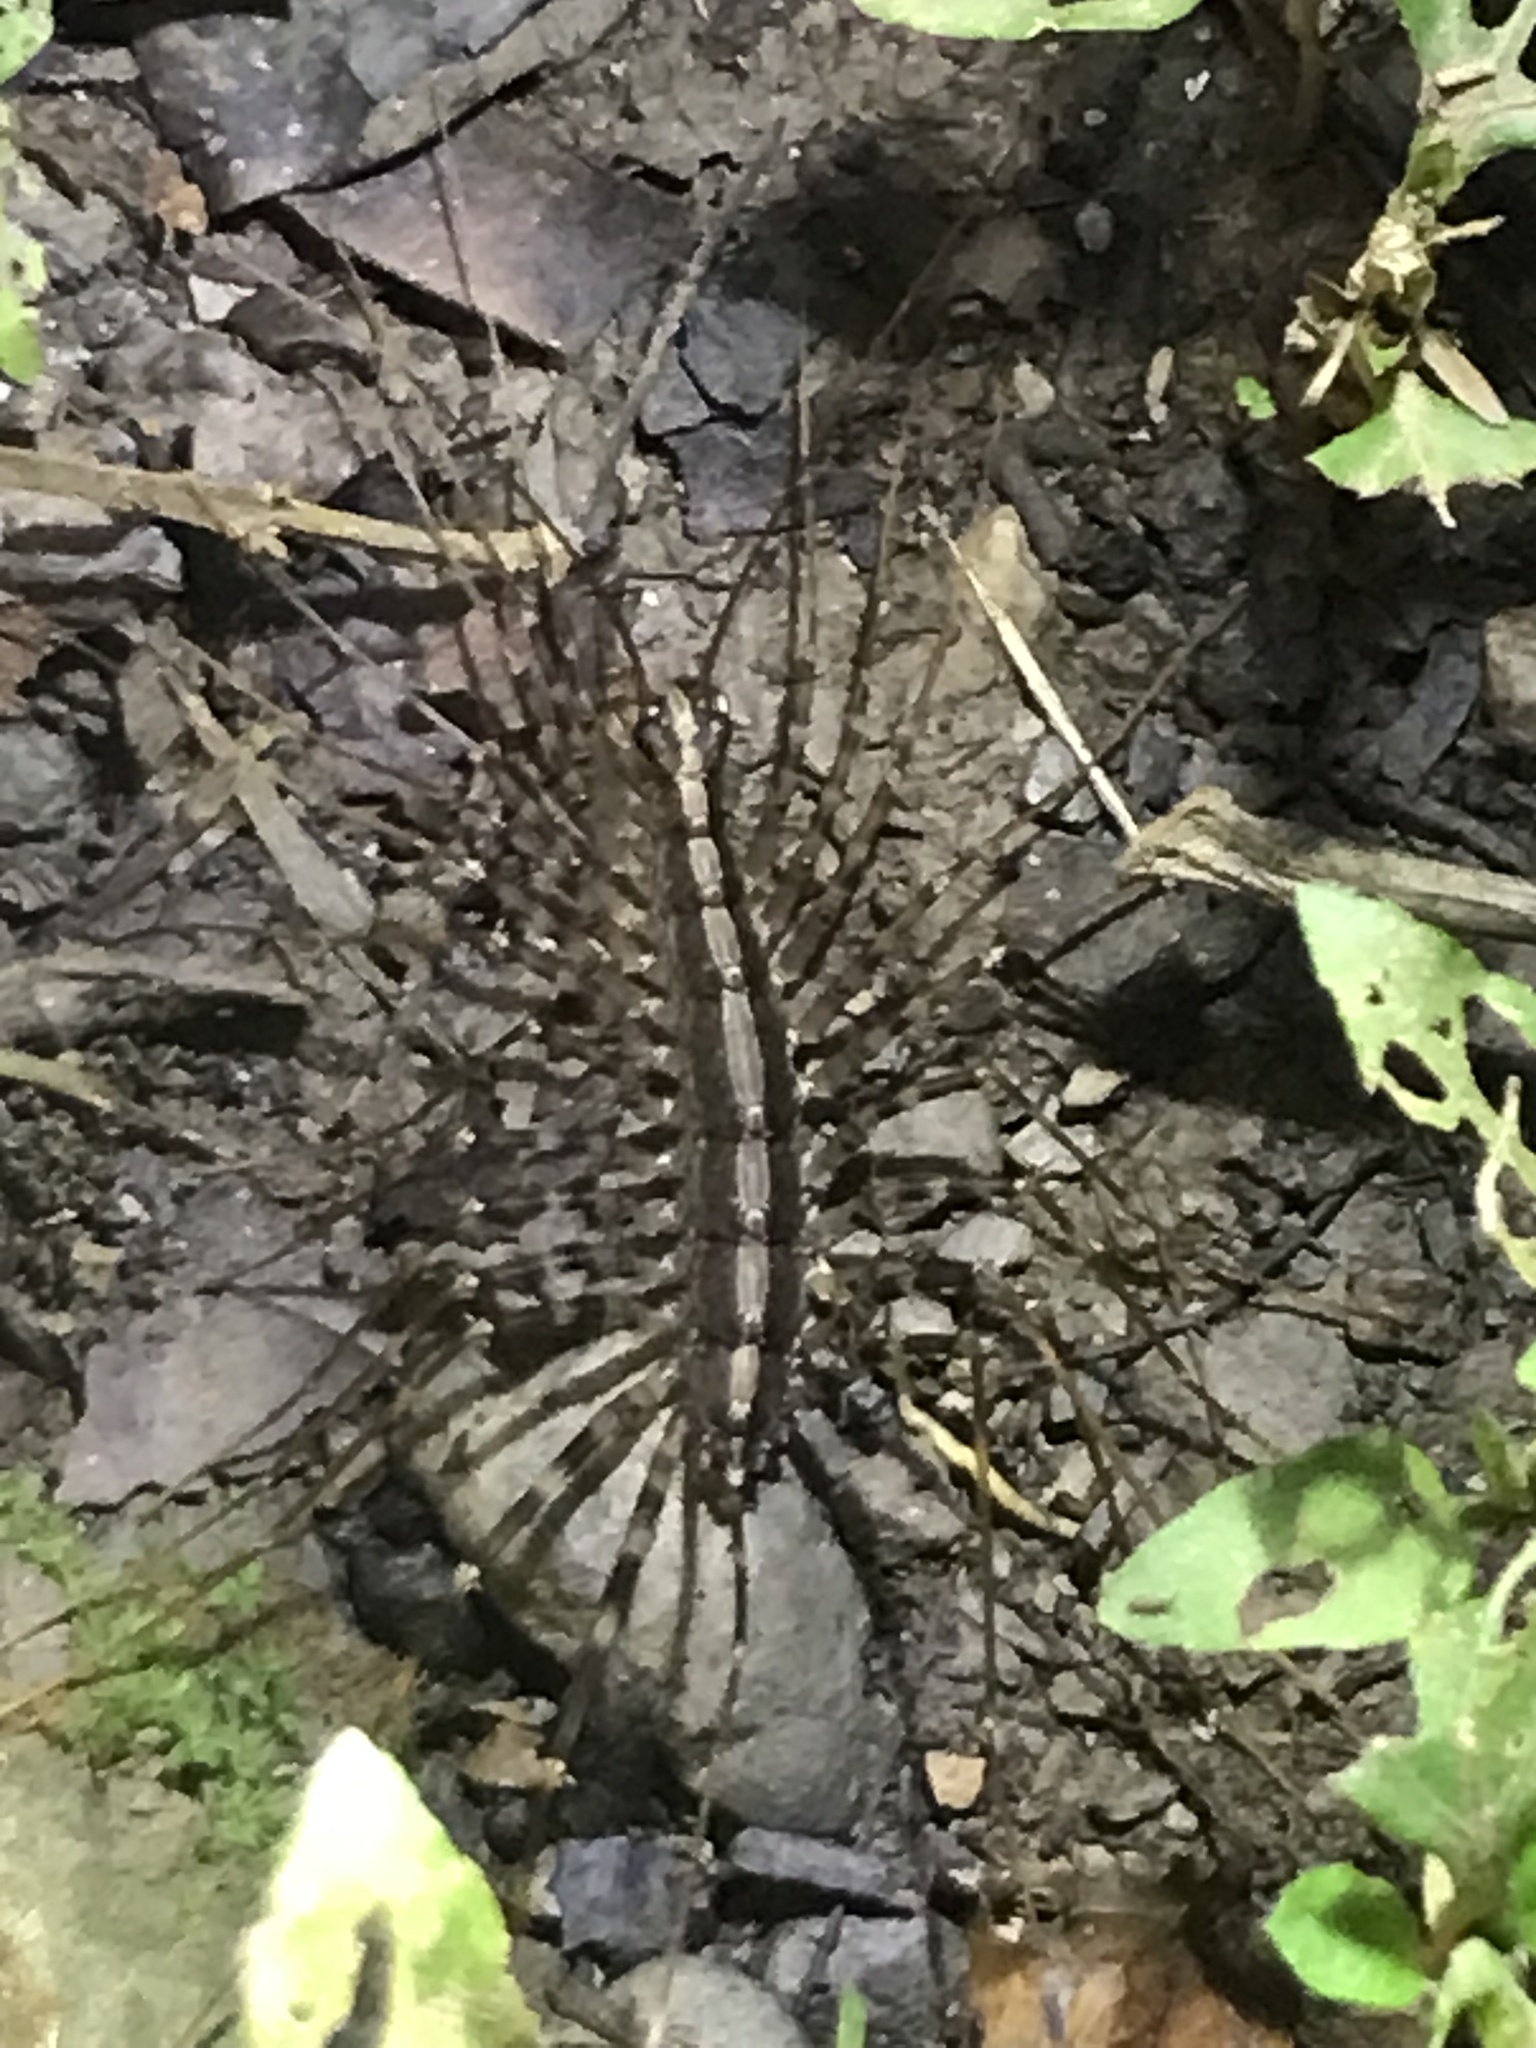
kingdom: Animalia
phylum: Arthropoda
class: Chilopoda
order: Scutigeromorpha
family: Pselliodidae
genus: Sphendononema
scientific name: Sphendononema guildingii
